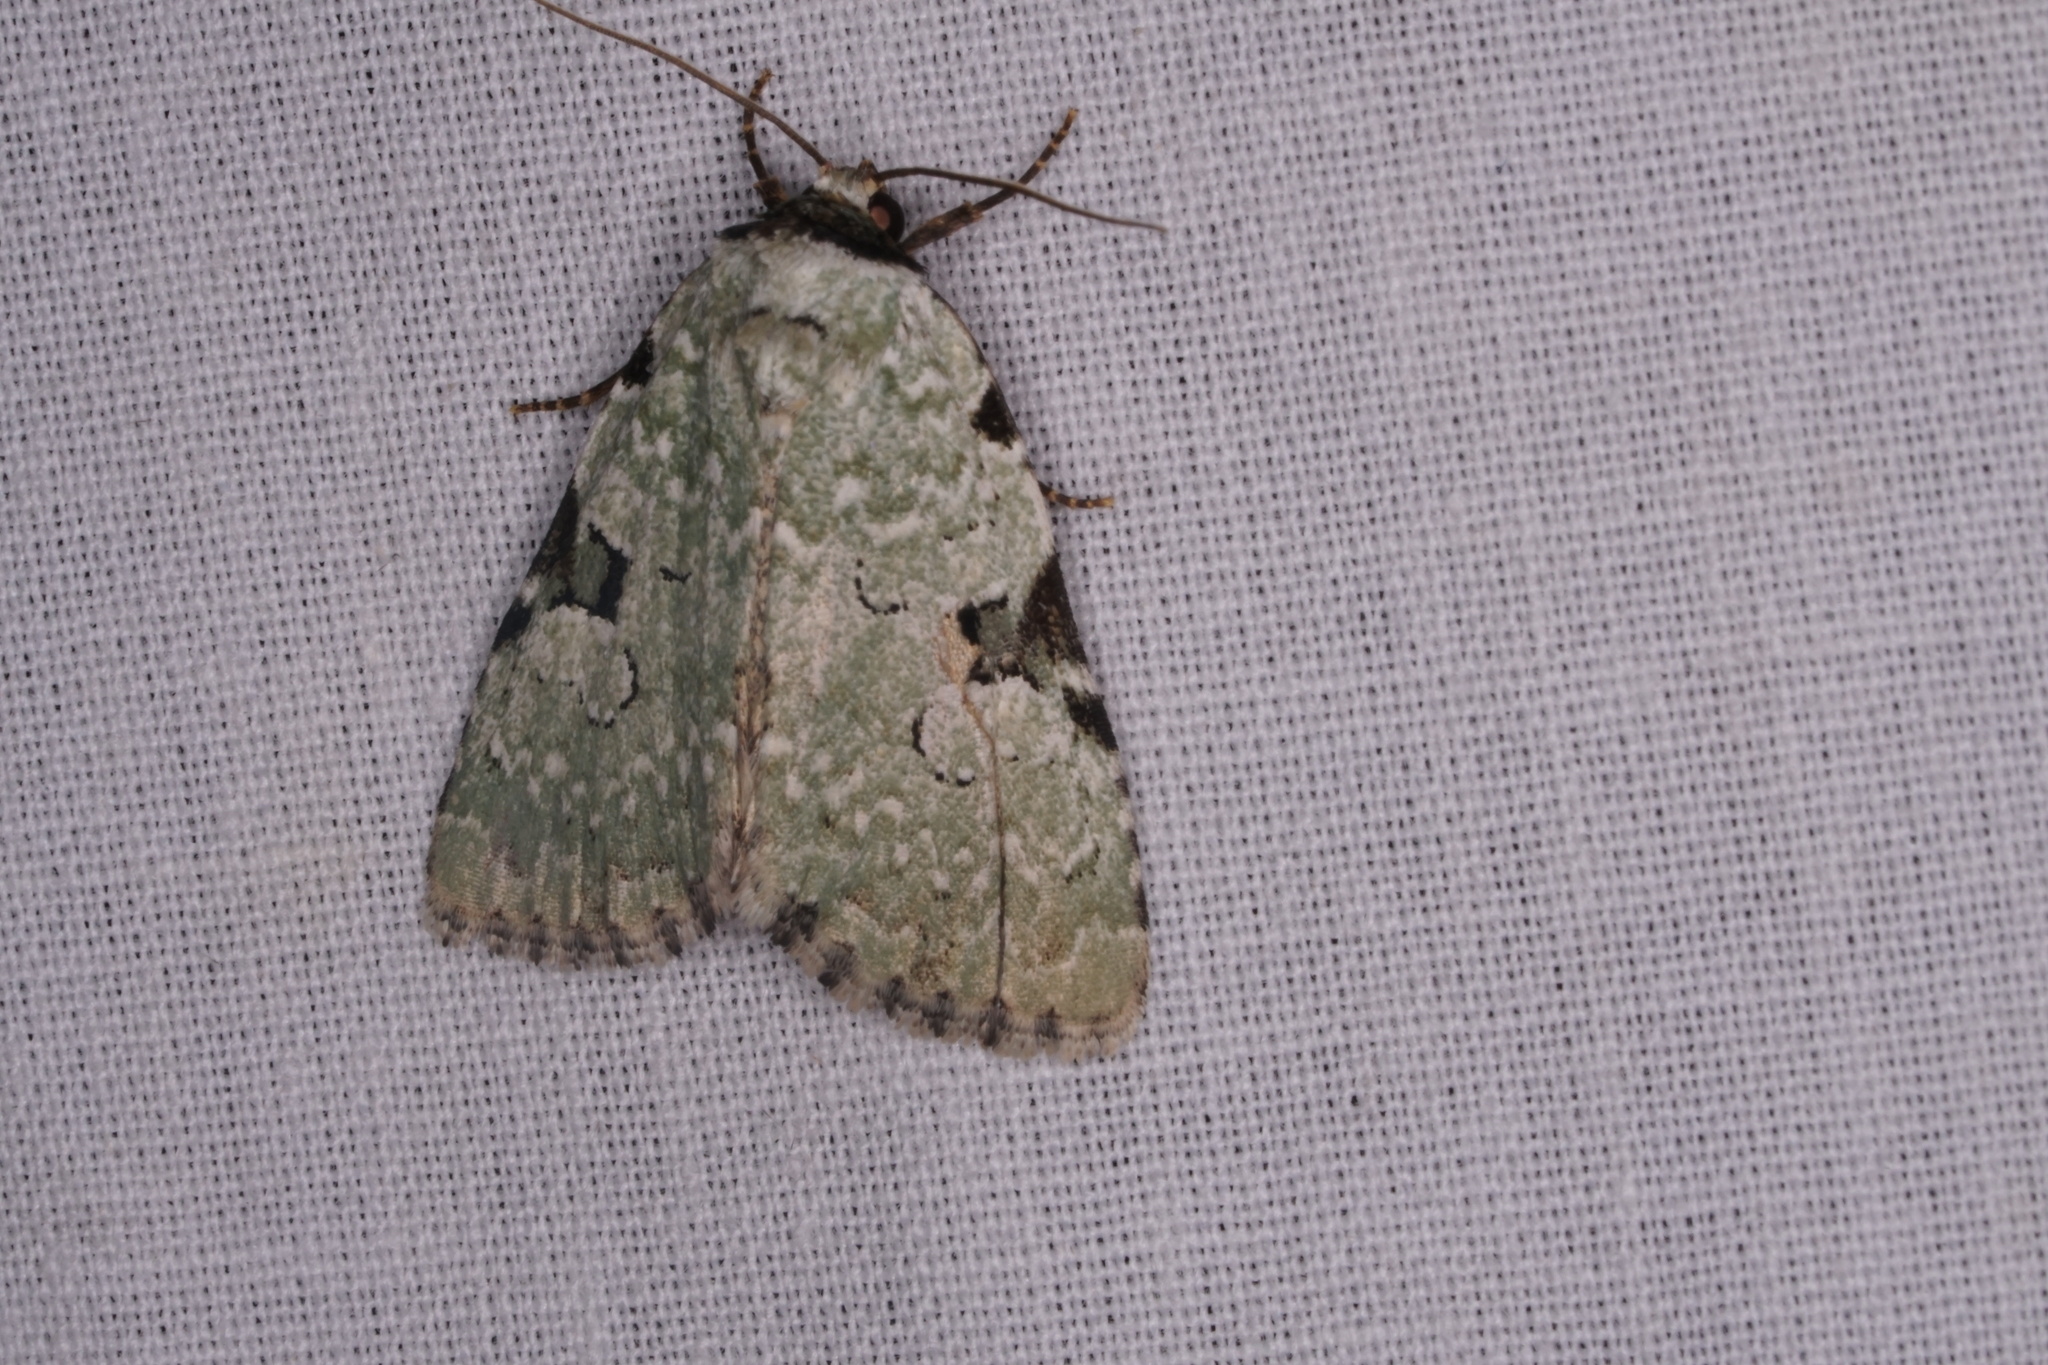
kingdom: Animalia
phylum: Arthropoda
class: Insecta
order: Lepidoptera
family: Noctuidae
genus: Leuconycta
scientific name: Leuconycta diphteroides
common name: Green leuconycta moth
